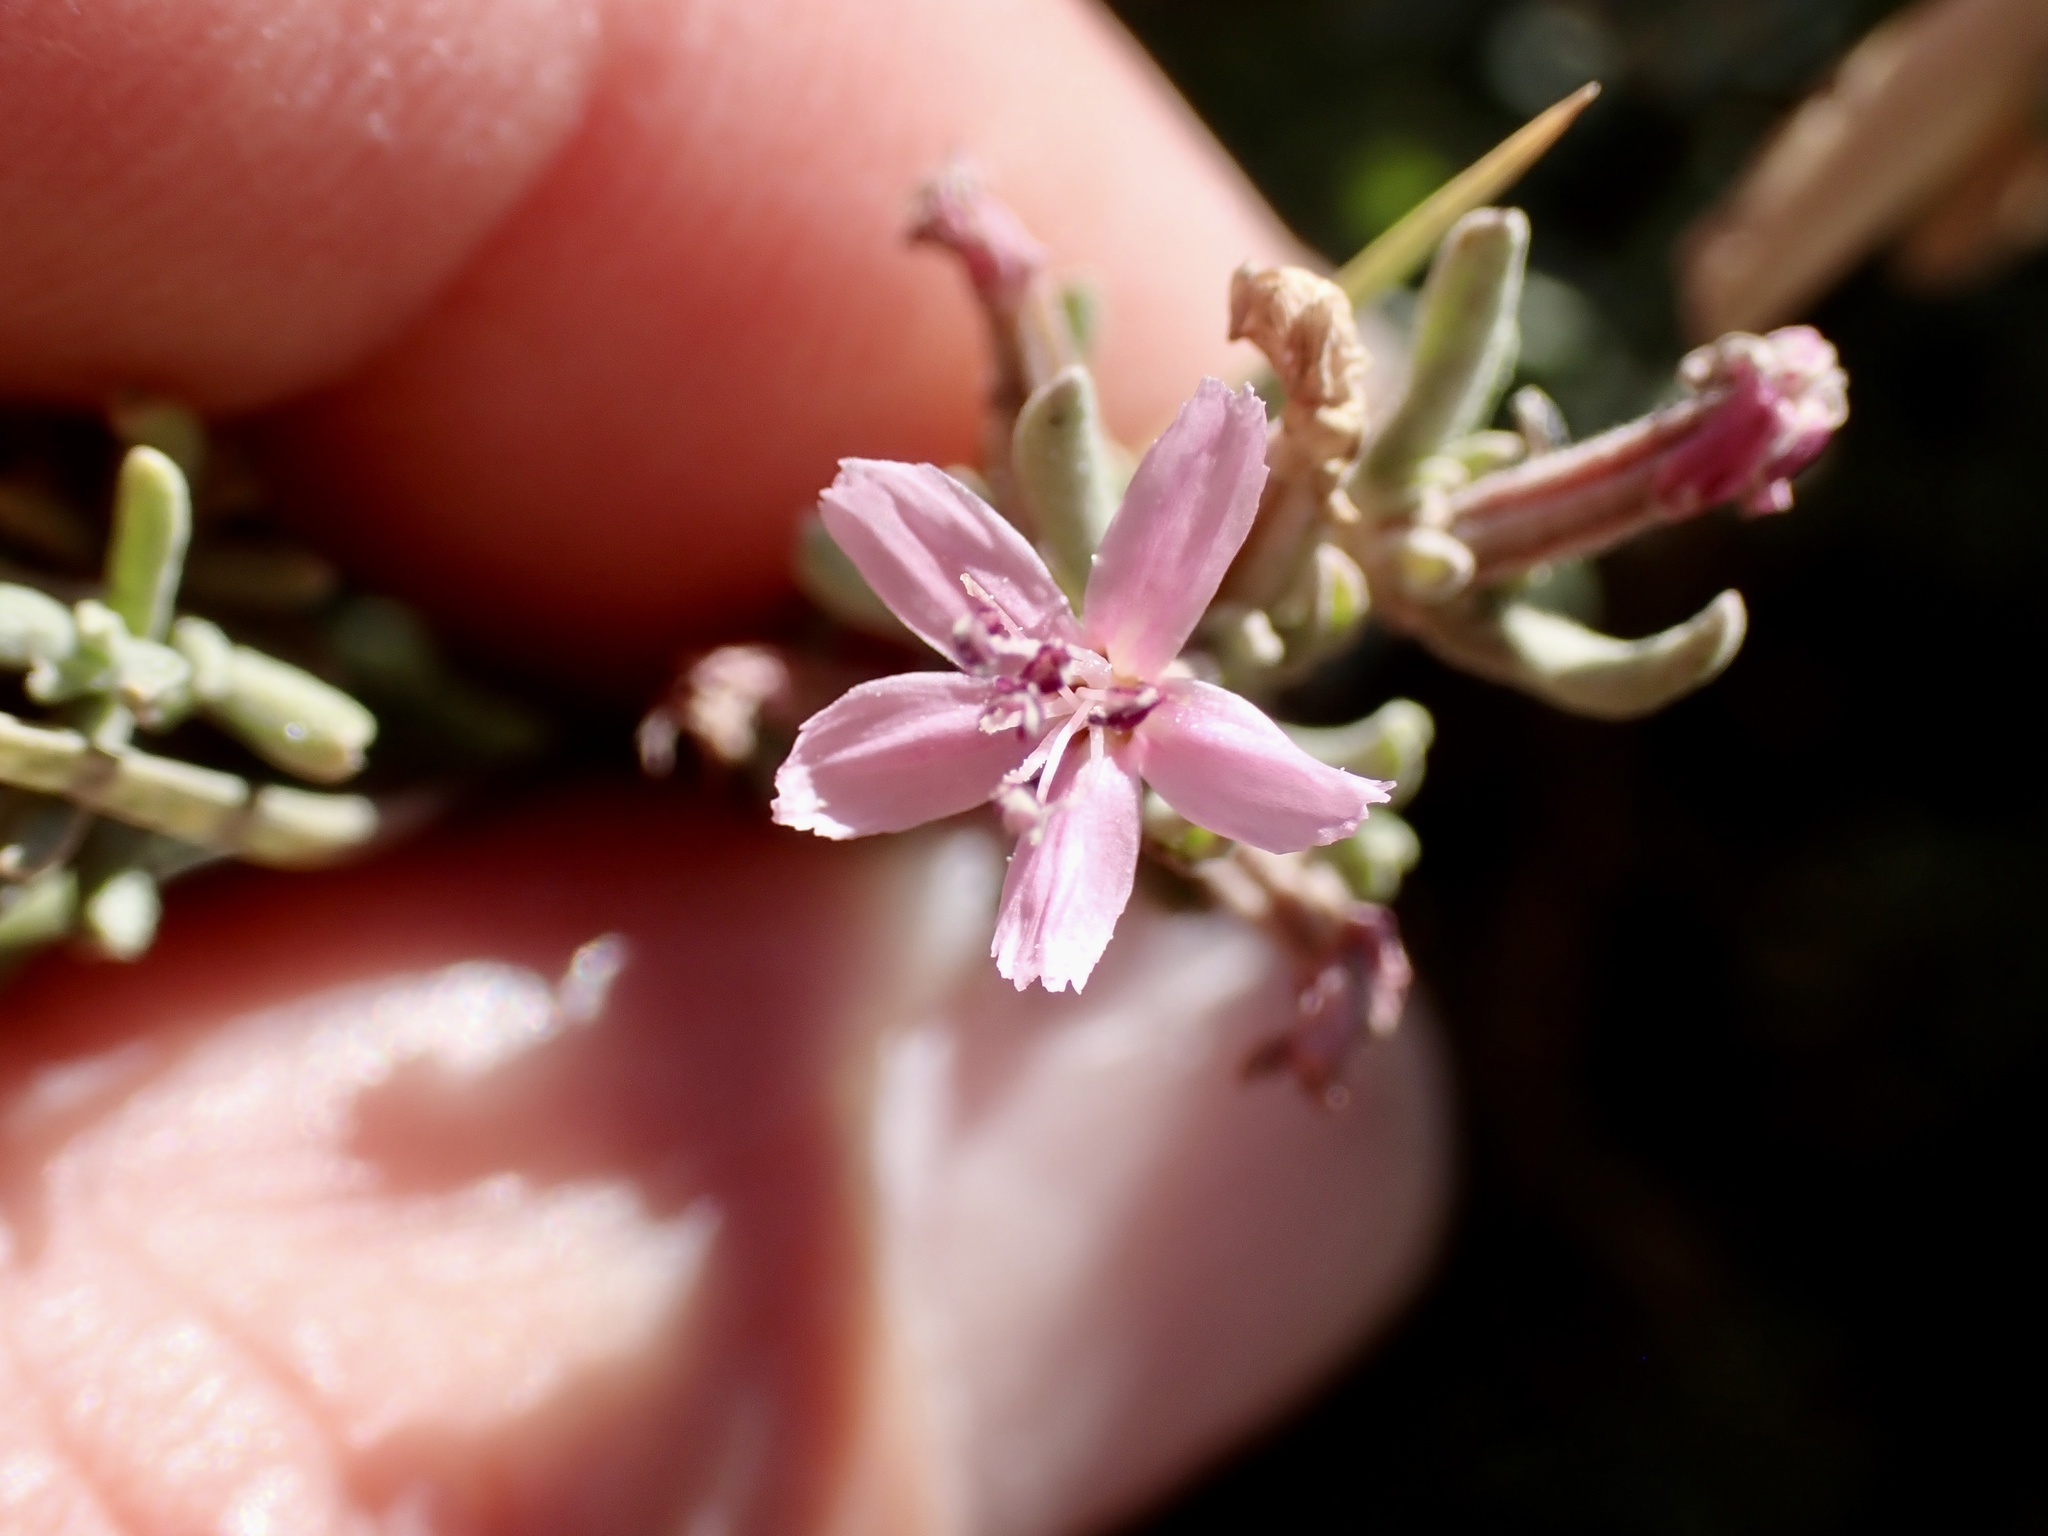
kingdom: Plantae
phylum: Tracheophyta
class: Magnoliopsida
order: Caryophyllales
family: Frankeniaceae
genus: Frankenia
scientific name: Frankenia salina
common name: Alkali seaheath
